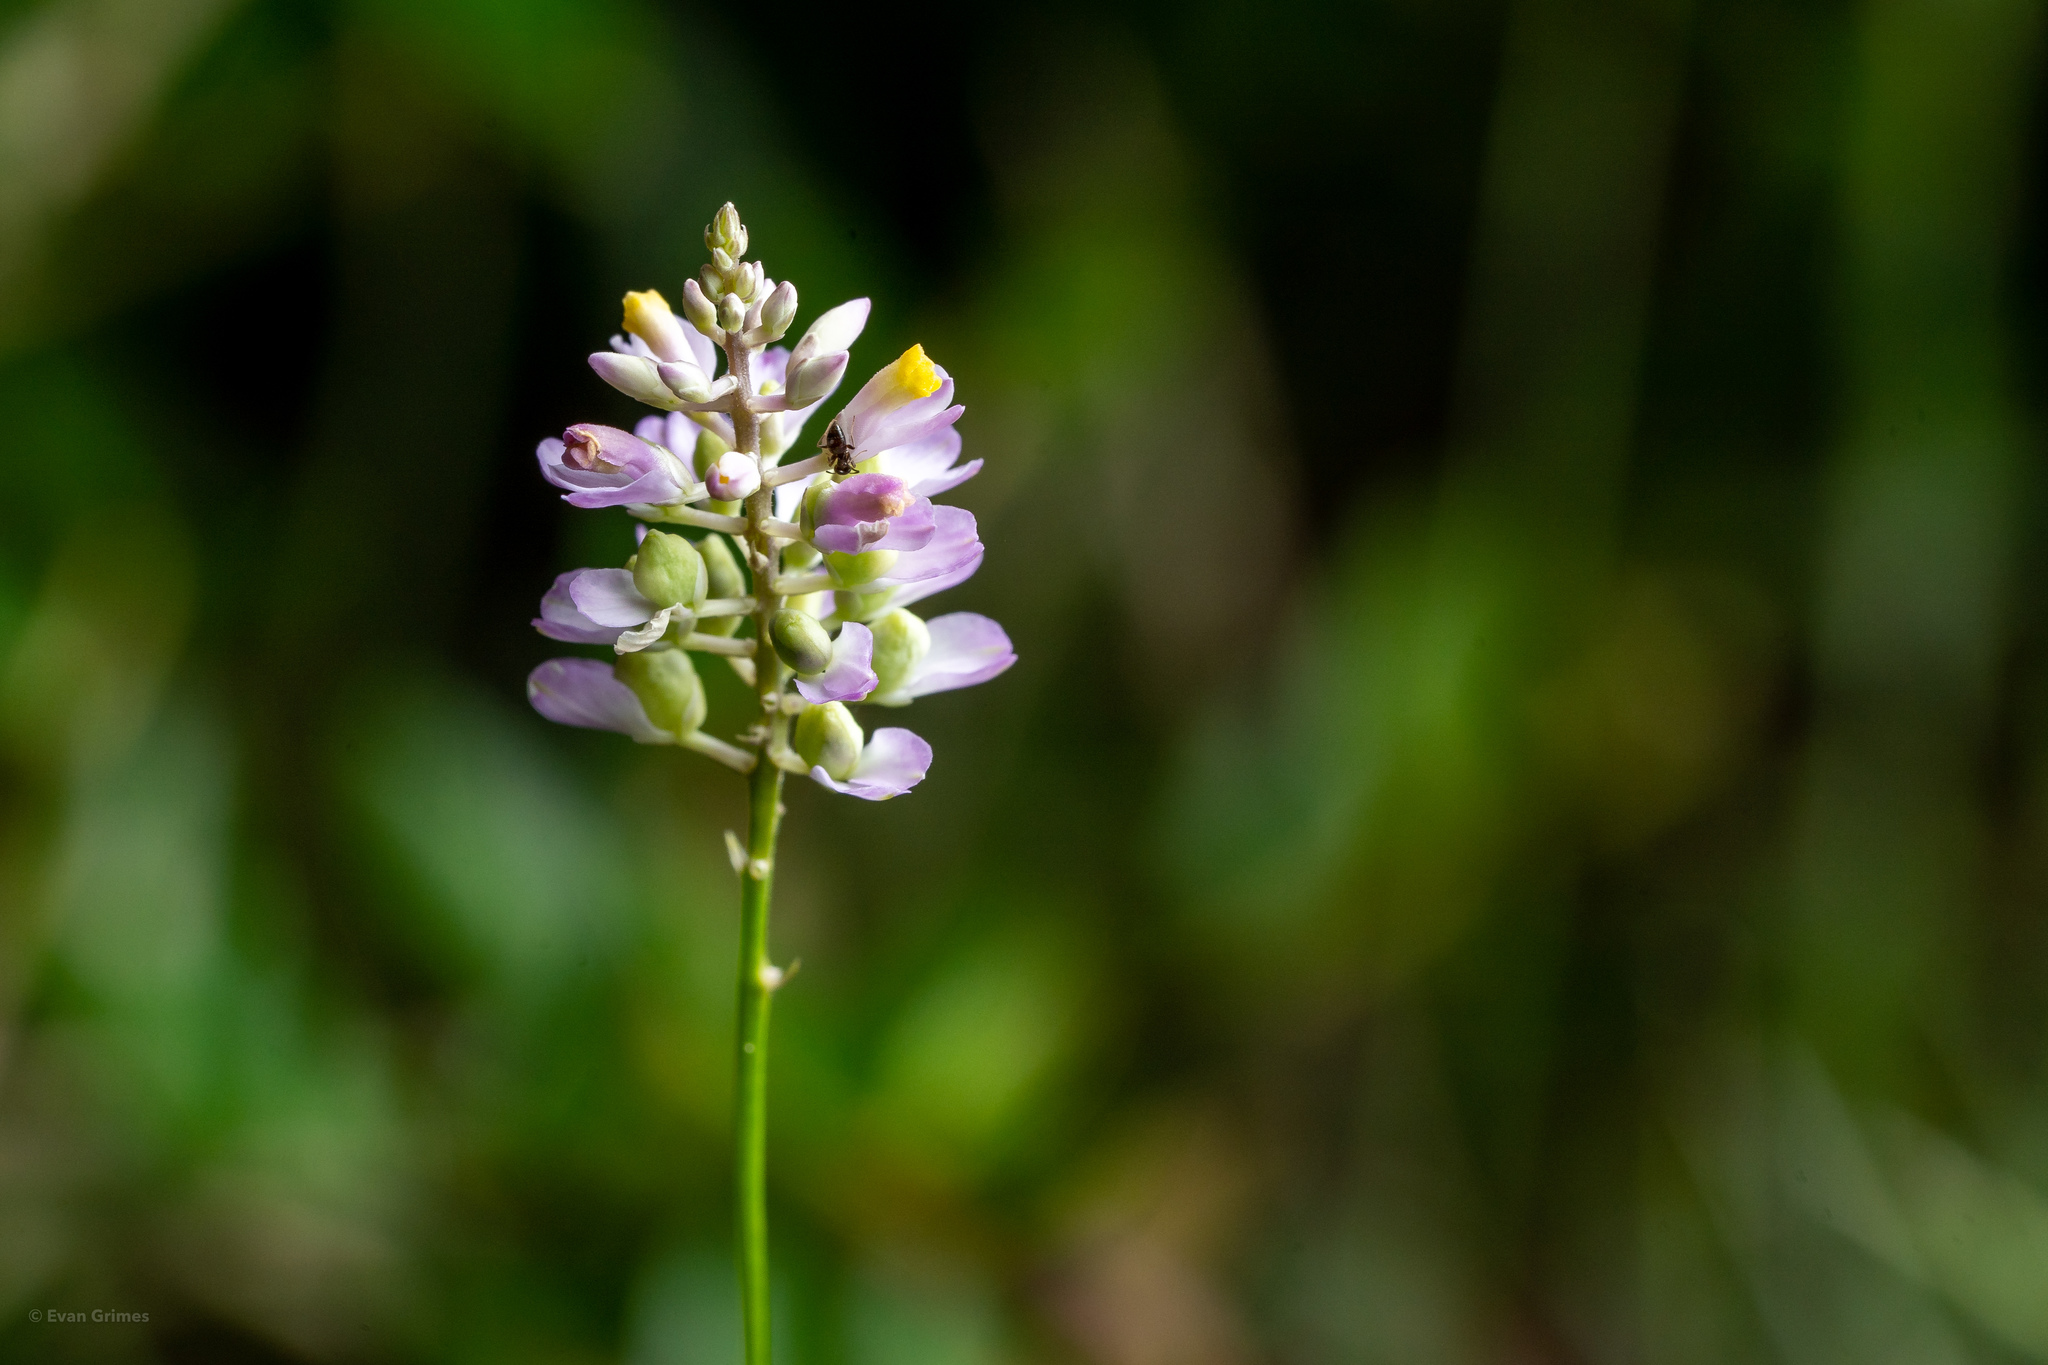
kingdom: Plantae
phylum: Tracheophyta
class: Magnoliopsida
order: Fabales
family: Polygalaceae
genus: Polygala
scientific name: Polygala mariana
